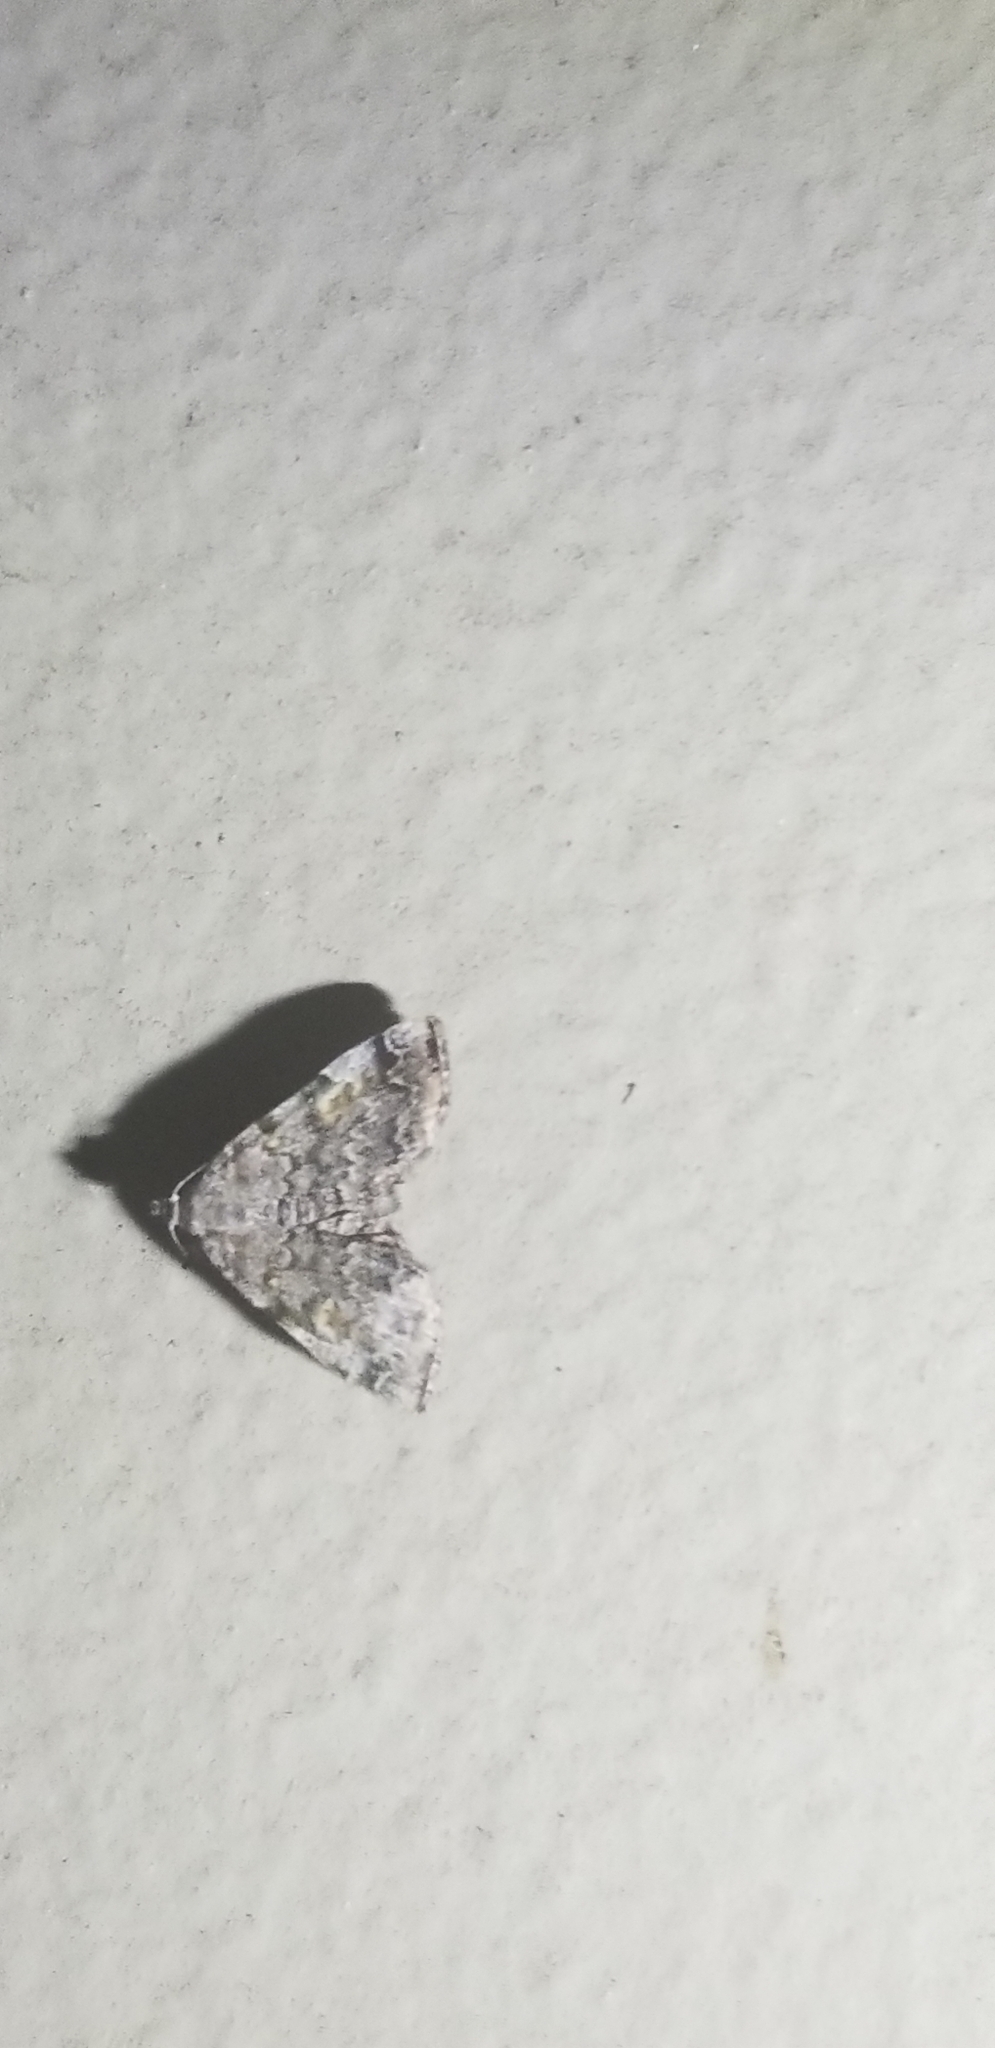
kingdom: Animalia
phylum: Arthropoda
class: Insecta
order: Lepidoptera
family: Erebidae
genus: Idia
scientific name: Idia americalis
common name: American idia moth
